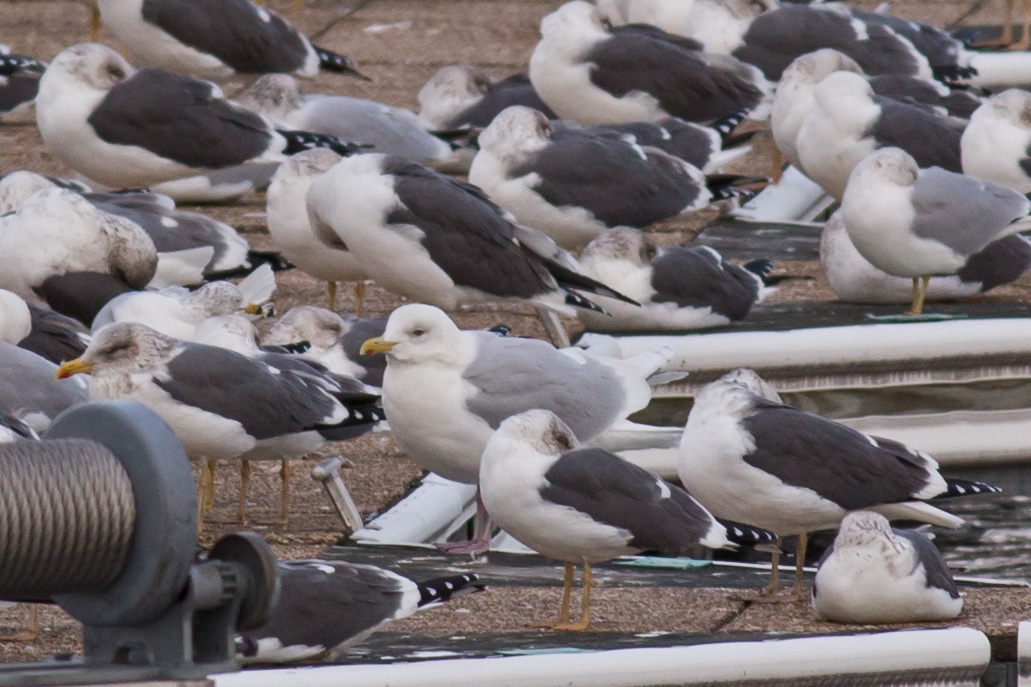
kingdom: Animalia
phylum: Chordata
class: Aves
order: Charadriiformes
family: Laridae
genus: Larus
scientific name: Larus glaucoides
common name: Iceland gull
